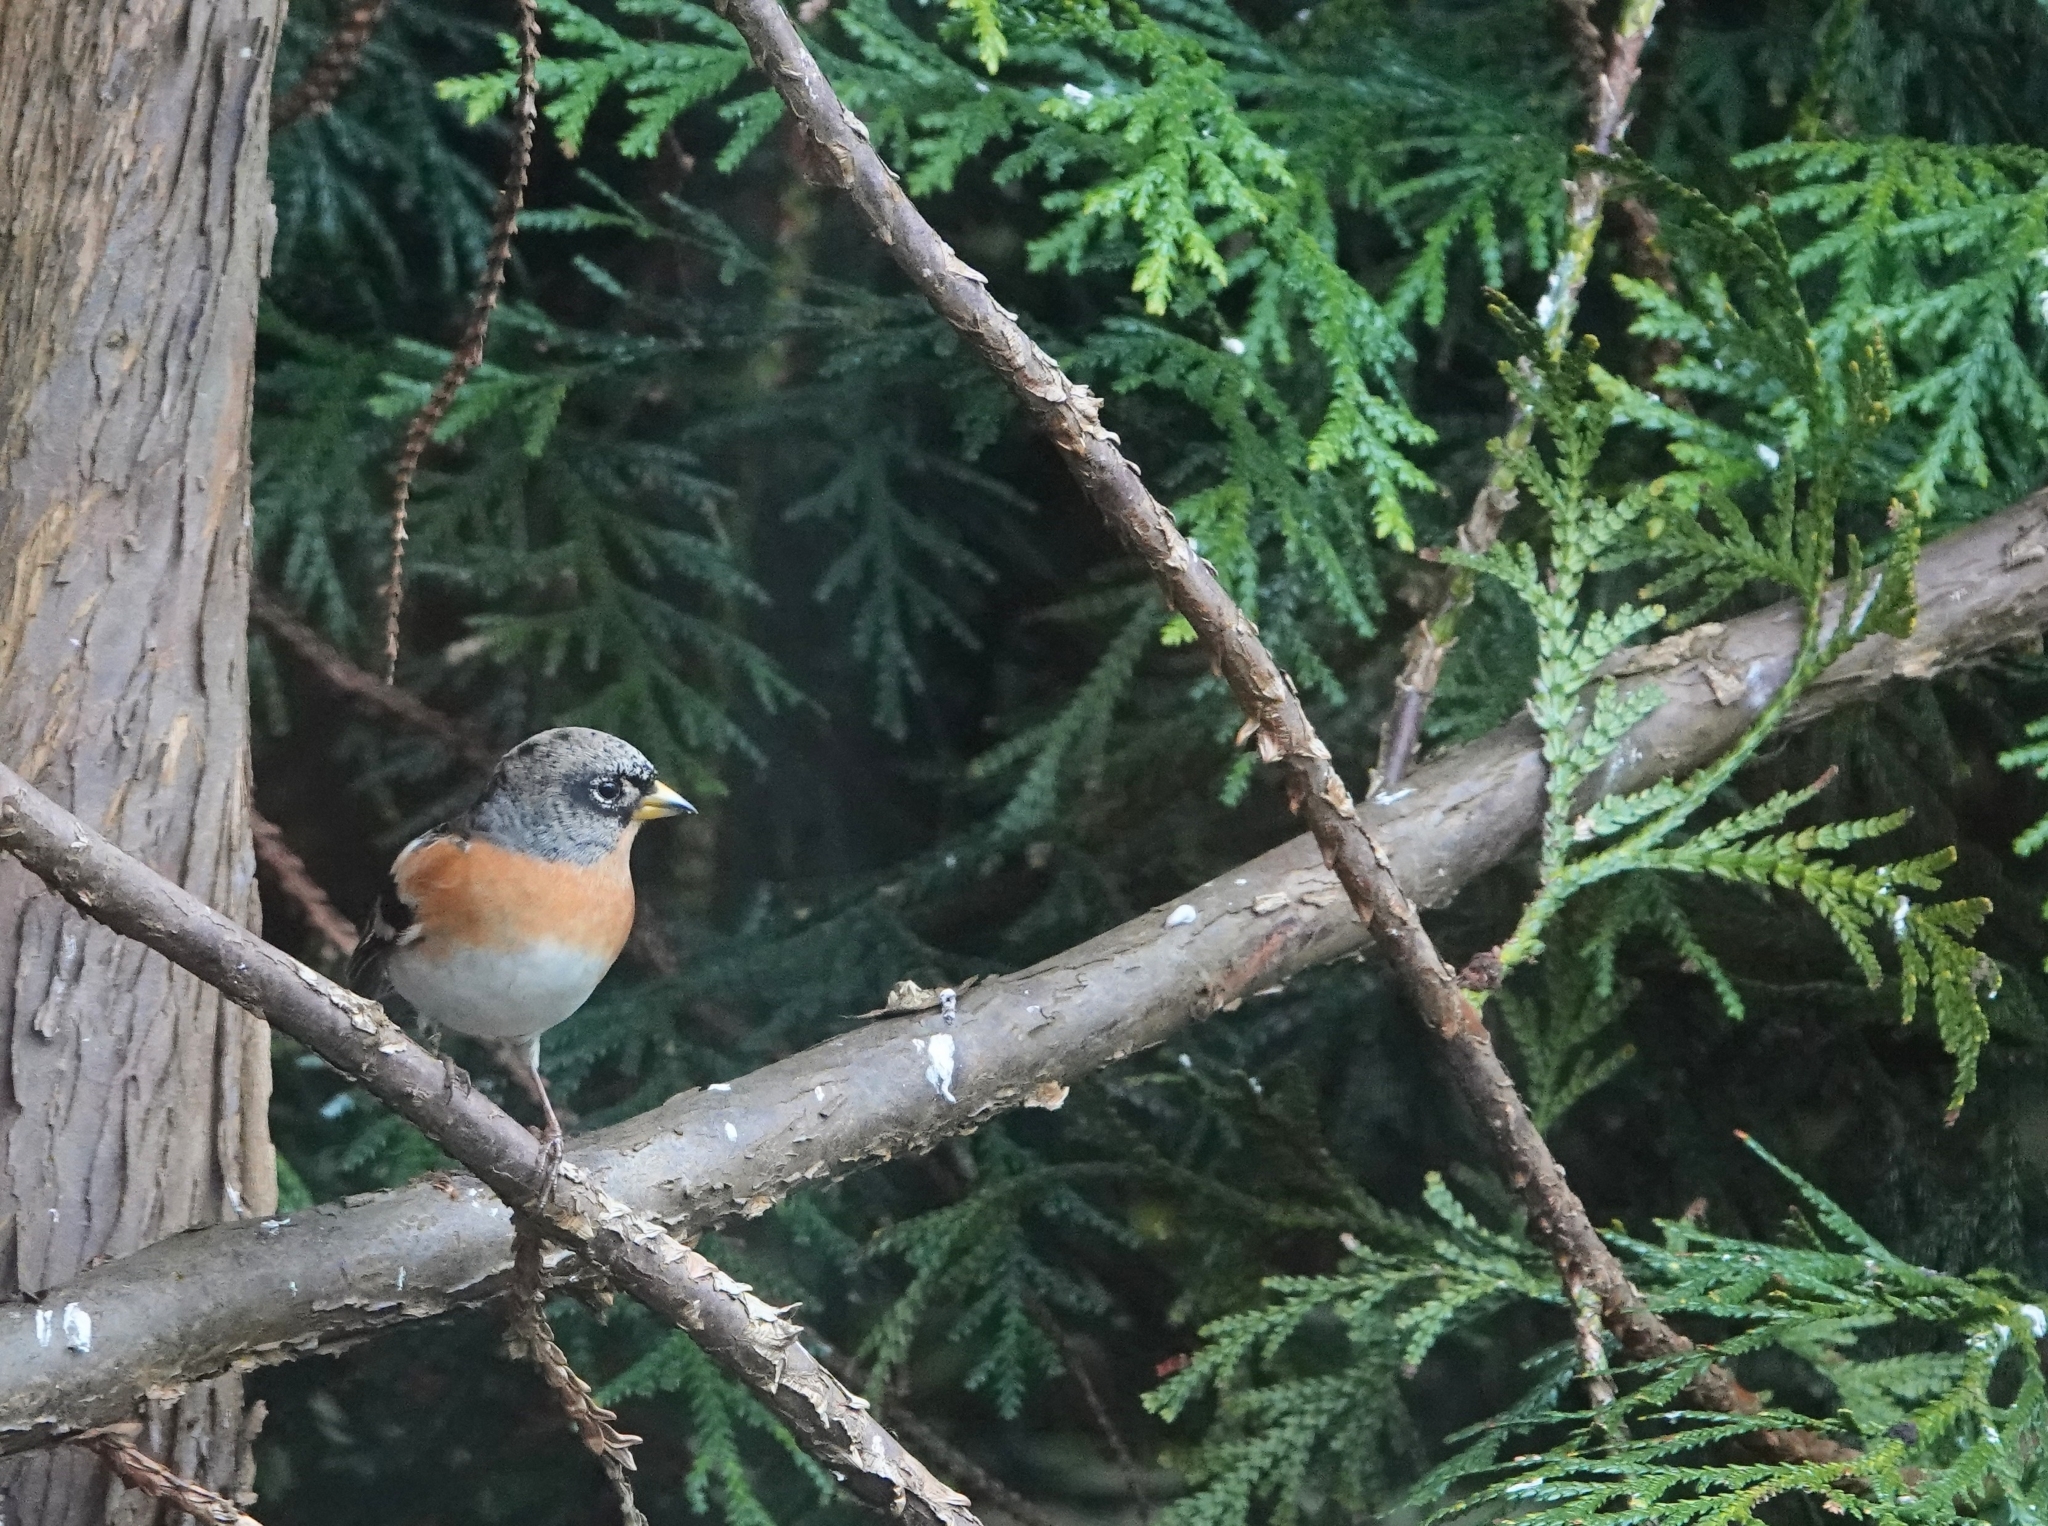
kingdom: Animalia
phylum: Chordata
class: Aves
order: Passeriformes
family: Fringillidae
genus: Fringilla
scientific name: Fringilla montifringilla
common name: Brambling
